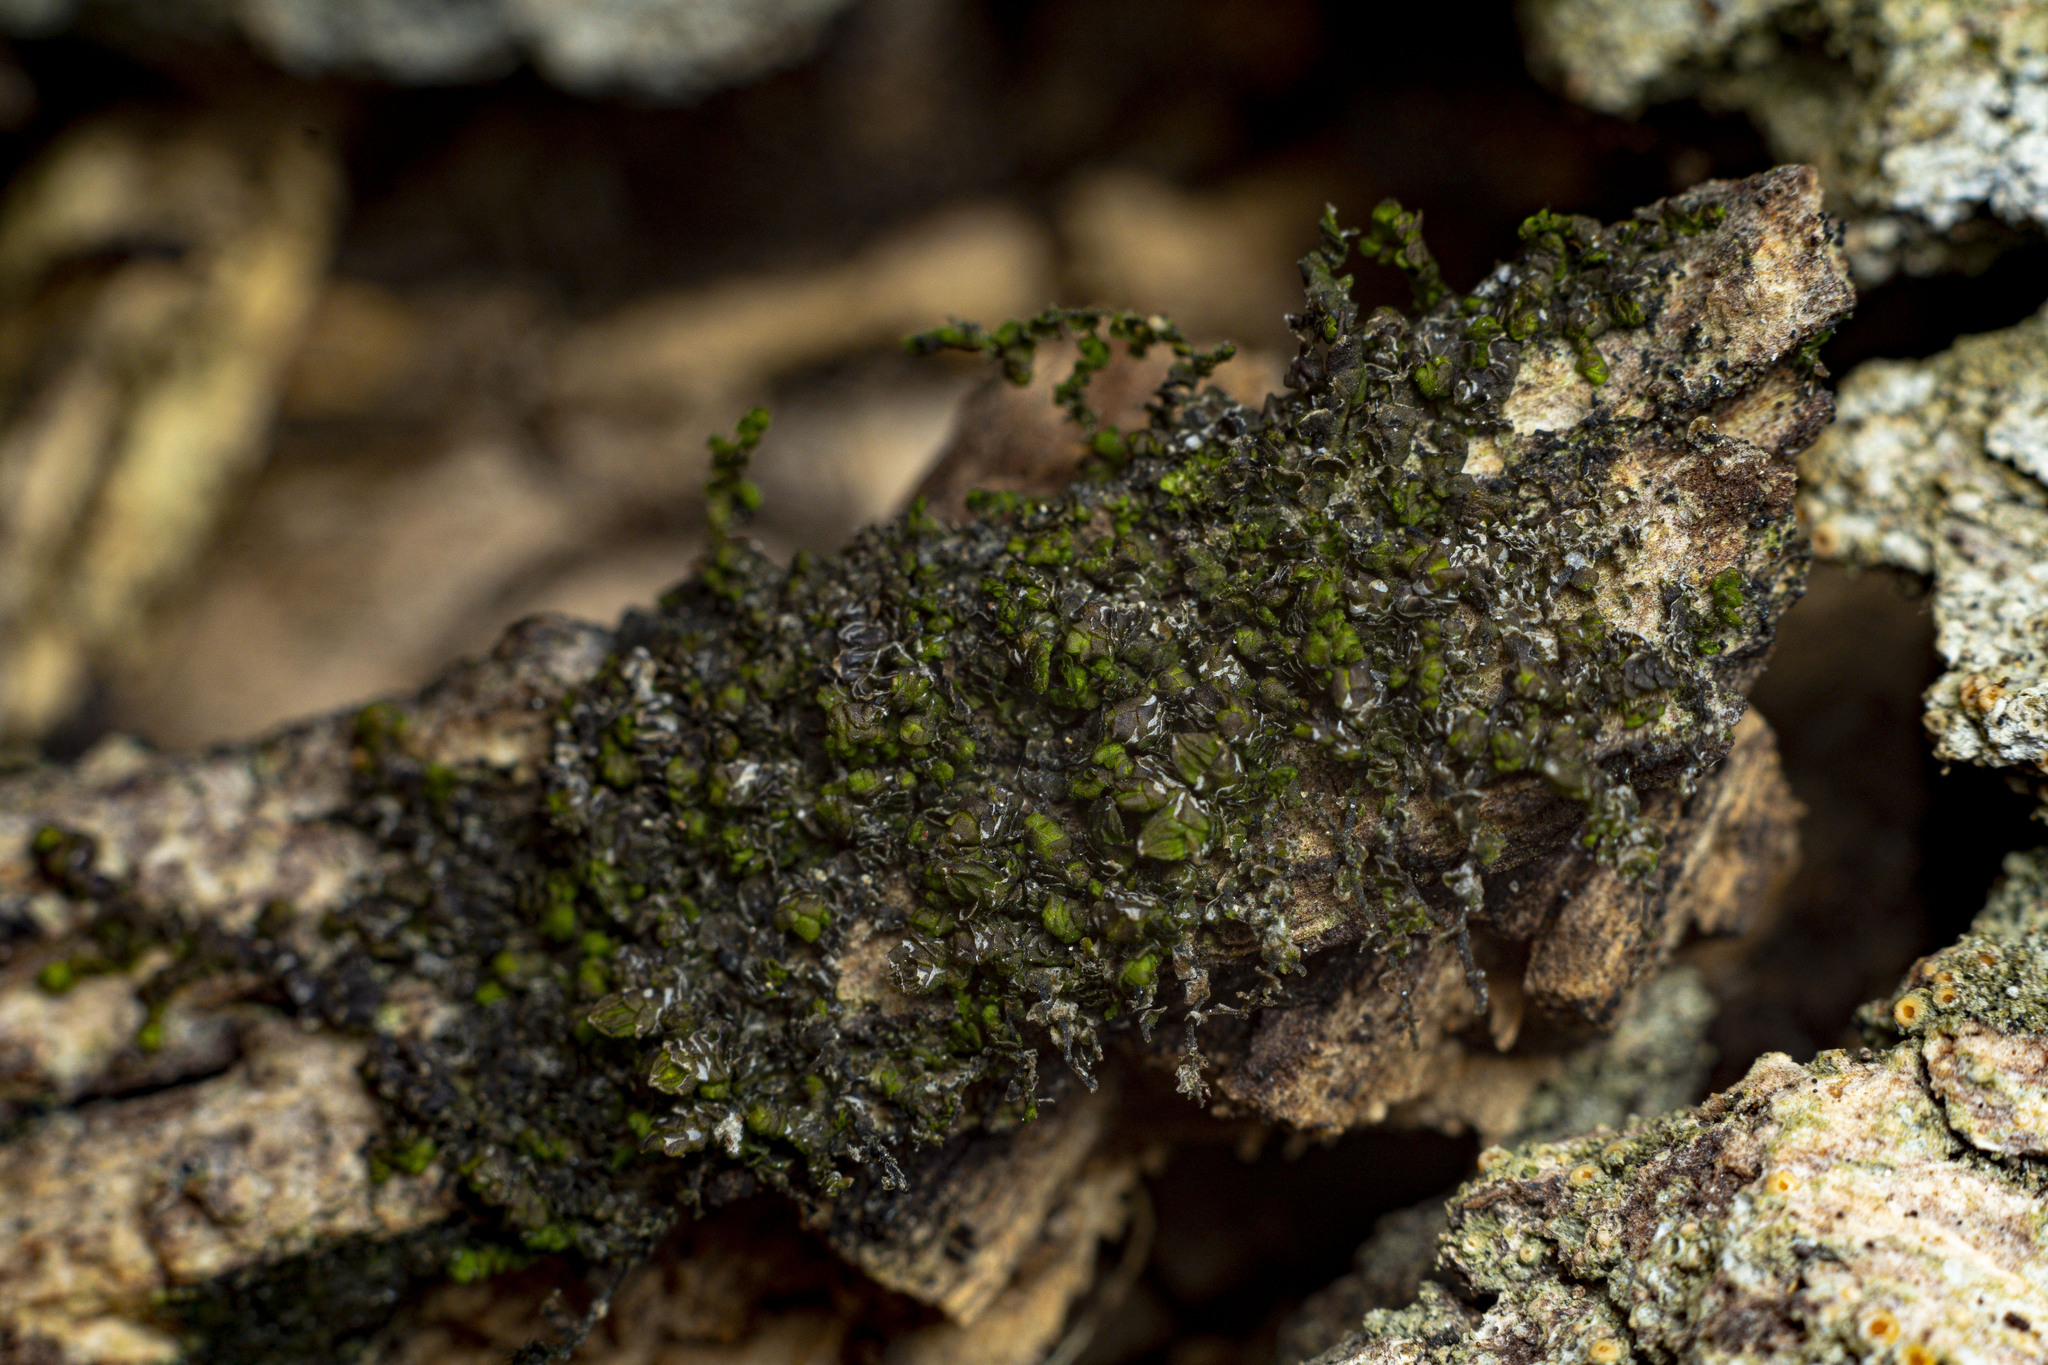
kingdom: Plantae
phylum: Marchantiophyta
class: Jungermanniopsida
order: Porellales
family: Frullaniaceae
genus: Frullania
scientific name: Frullania catalinae
